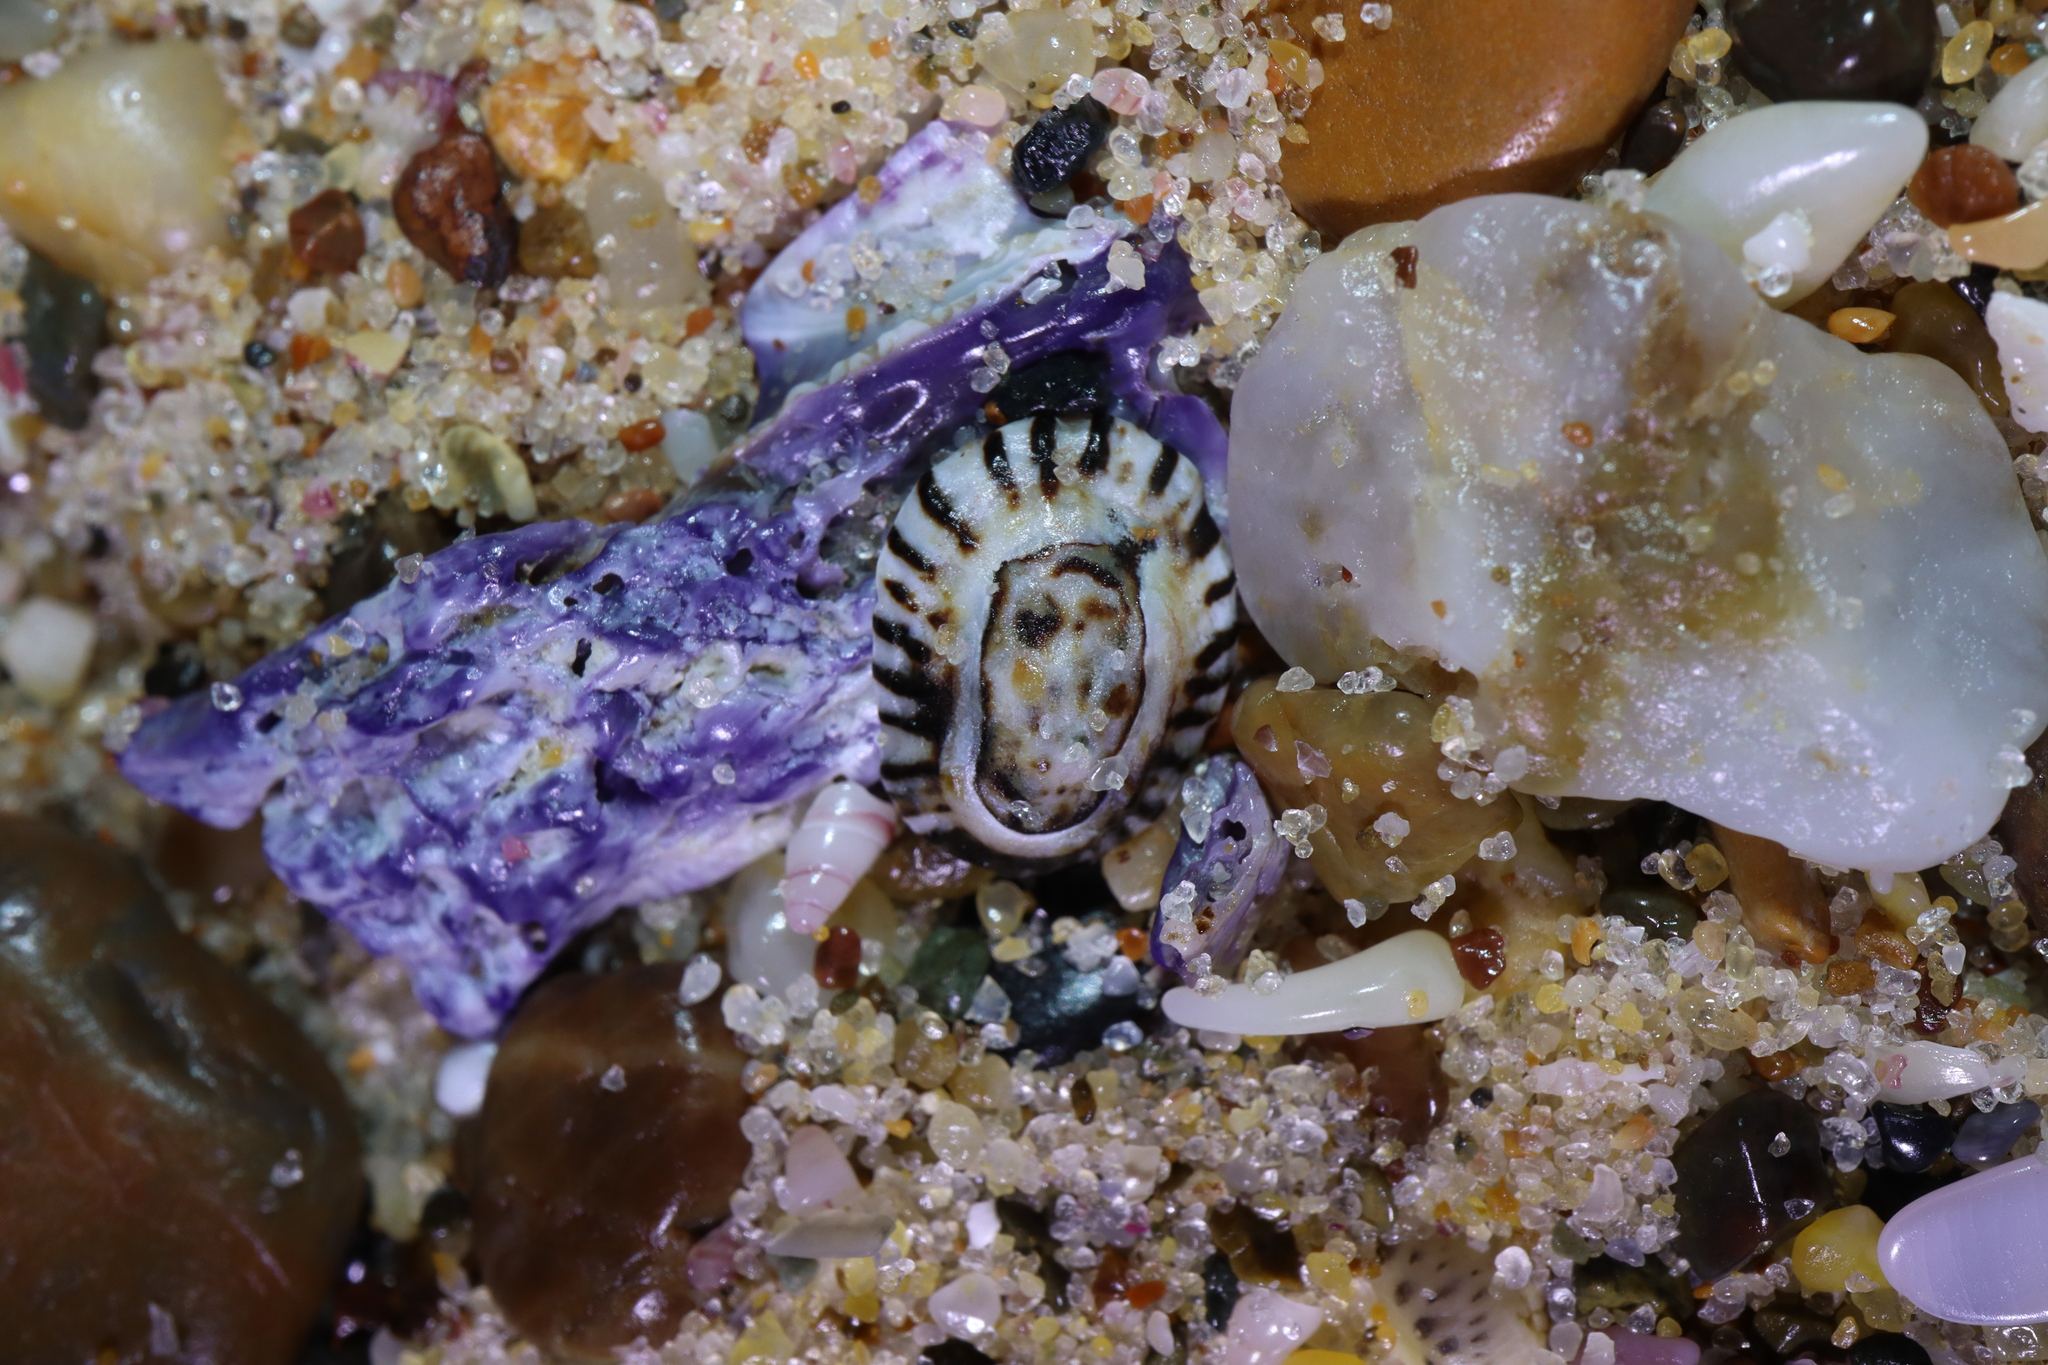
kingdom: Animalia
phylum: Mollusca
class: Gastropoda
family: Lottiidae
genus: Patelloida
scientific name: Patelloida latistrigata
